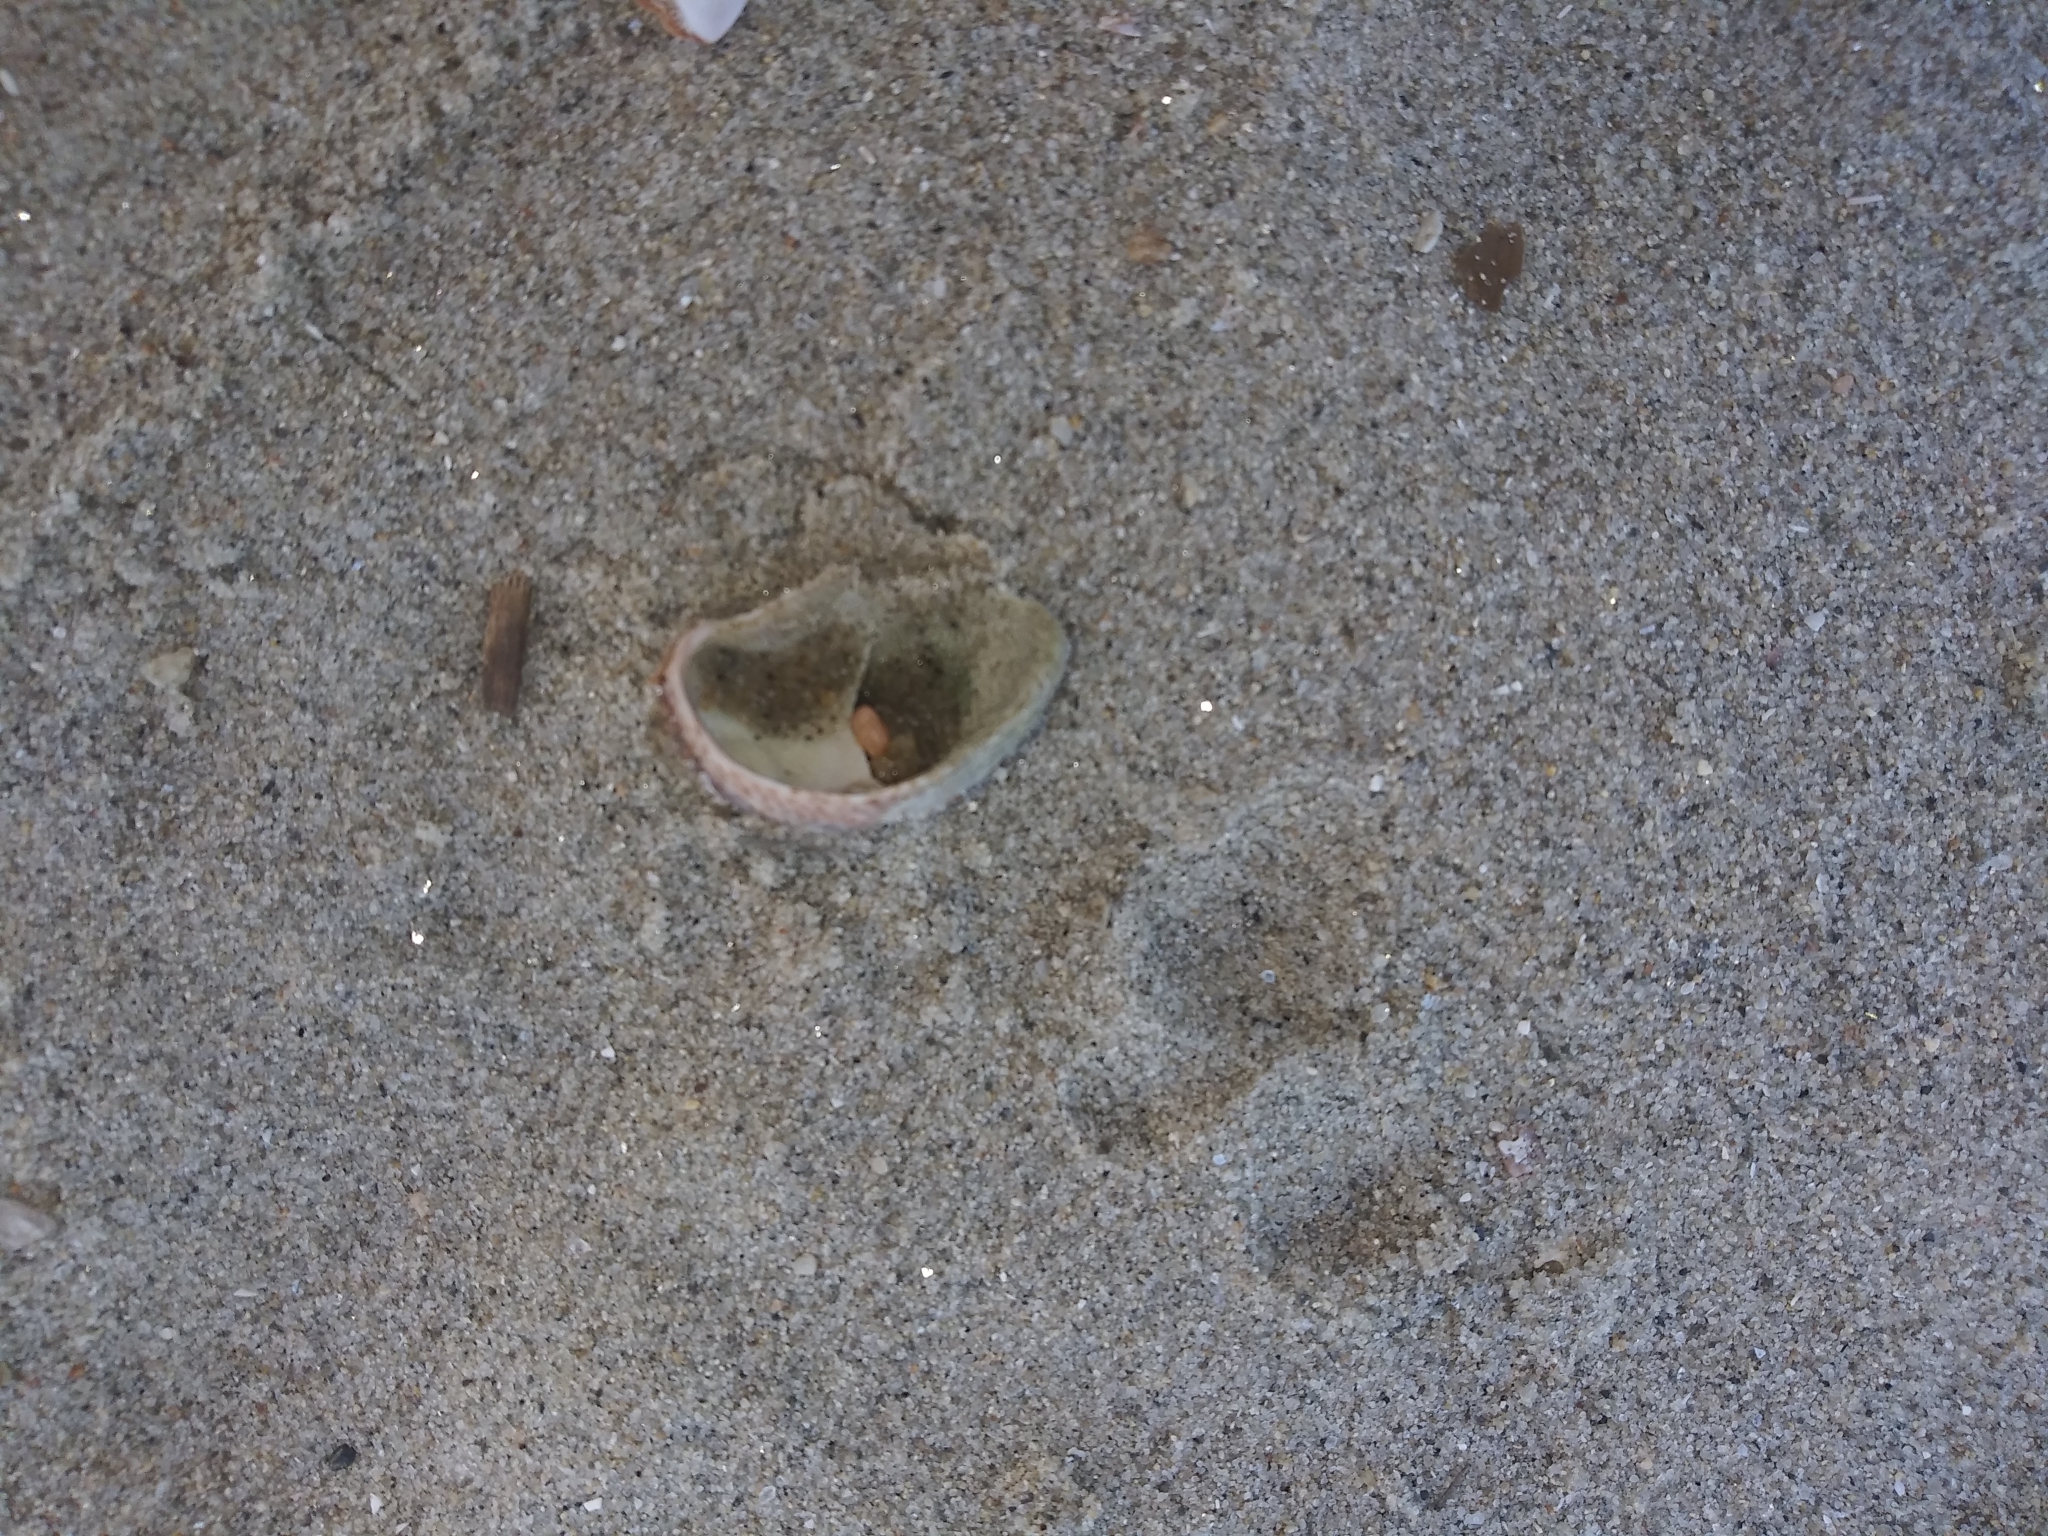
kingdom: Animalia
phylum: Mollusca
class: Gastropoda
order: Littorinimorpha
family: Calyptraeidae
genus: Crepidula
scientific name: Crepidula fornicata
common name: Slipper limpet
